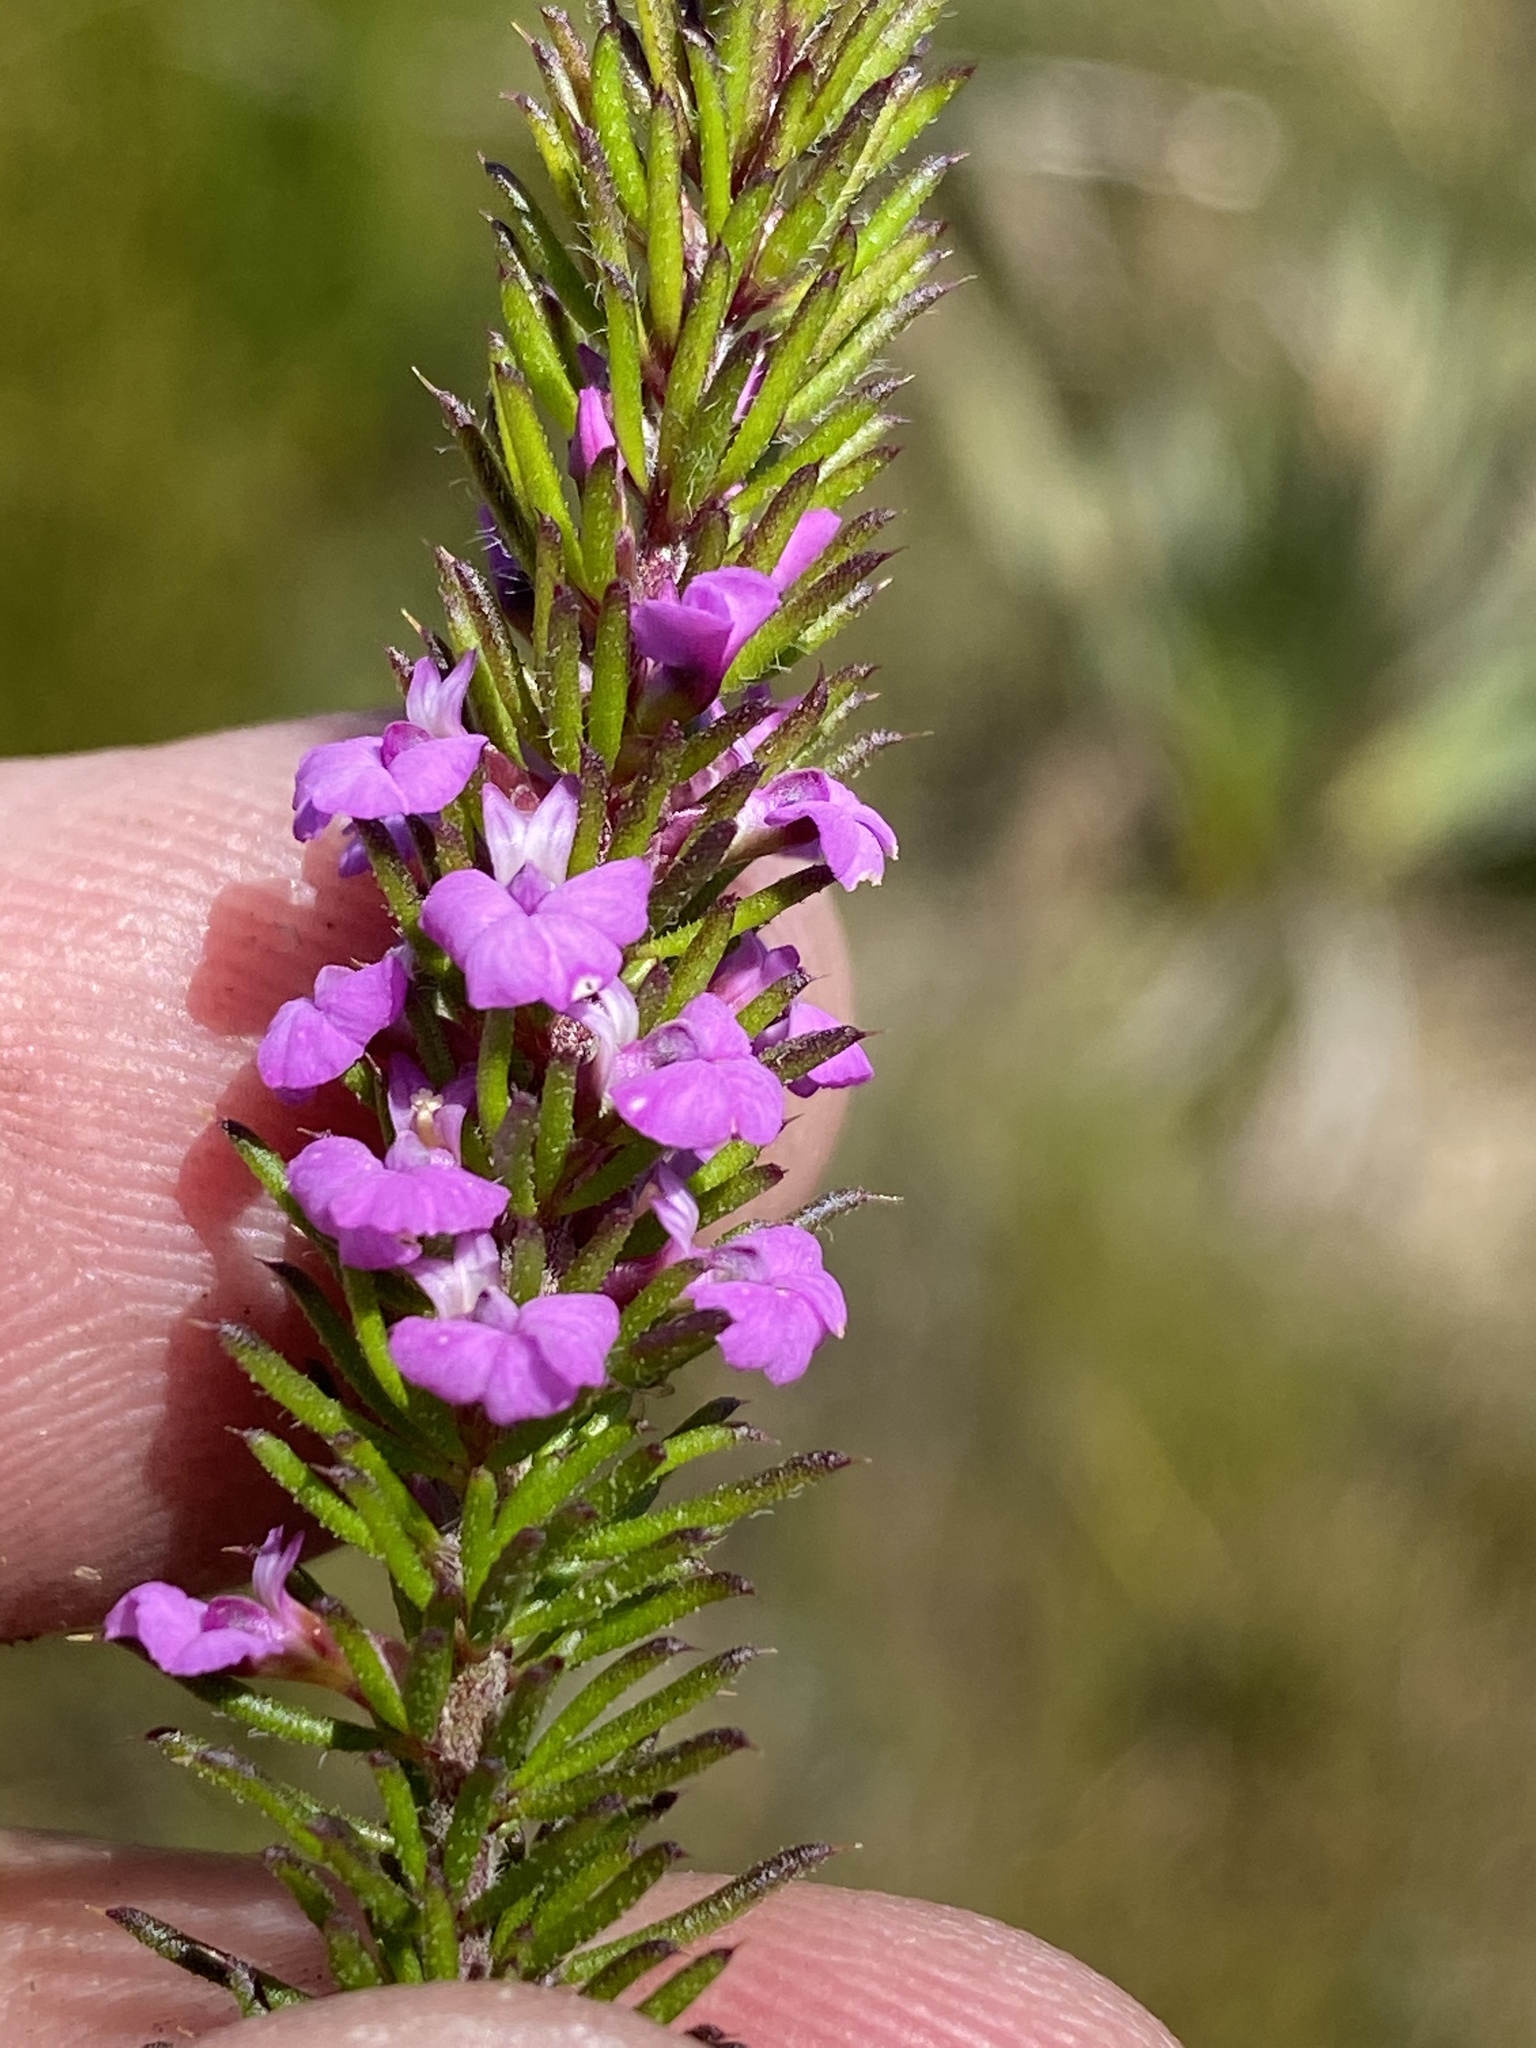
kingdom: Plantae
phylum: Tracheophyta
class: Magnoliopsida
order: Fabales
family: Polygalaceae
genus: Muraltia
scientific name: Muraltia alopecuroides
